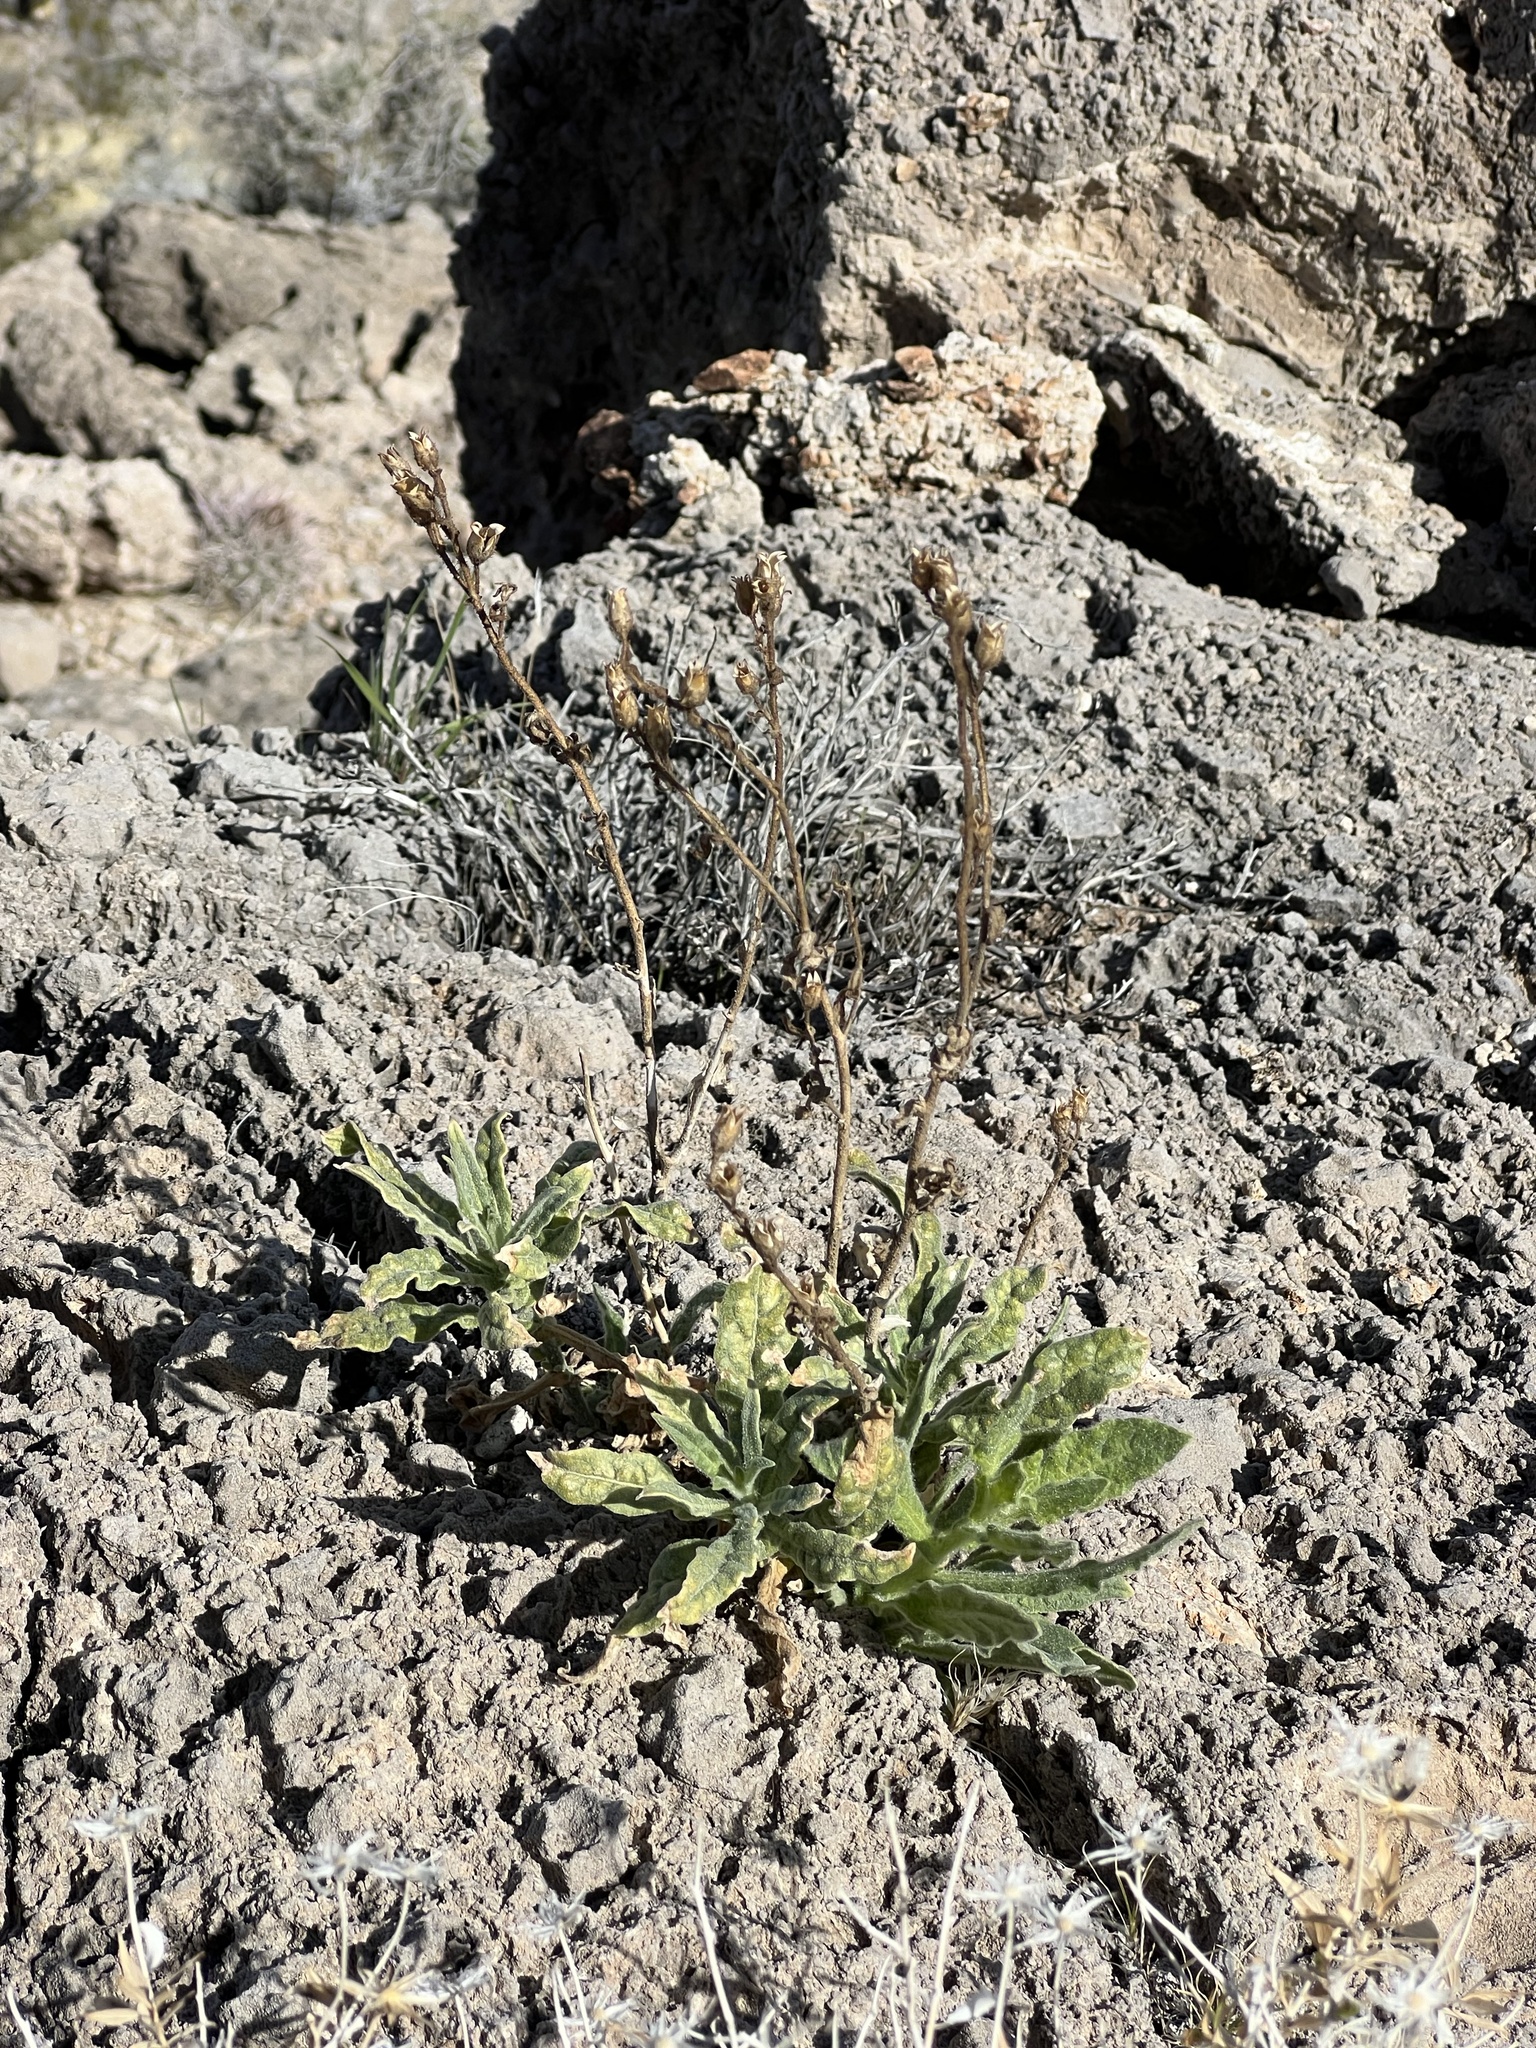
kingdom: Plantae
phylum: Tracheophyta
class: Magnoliopsida
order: Solanales
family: Solanaceae
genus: Nicotiana
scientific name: Nicotiana obtusifolia
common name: Desert tobacco
